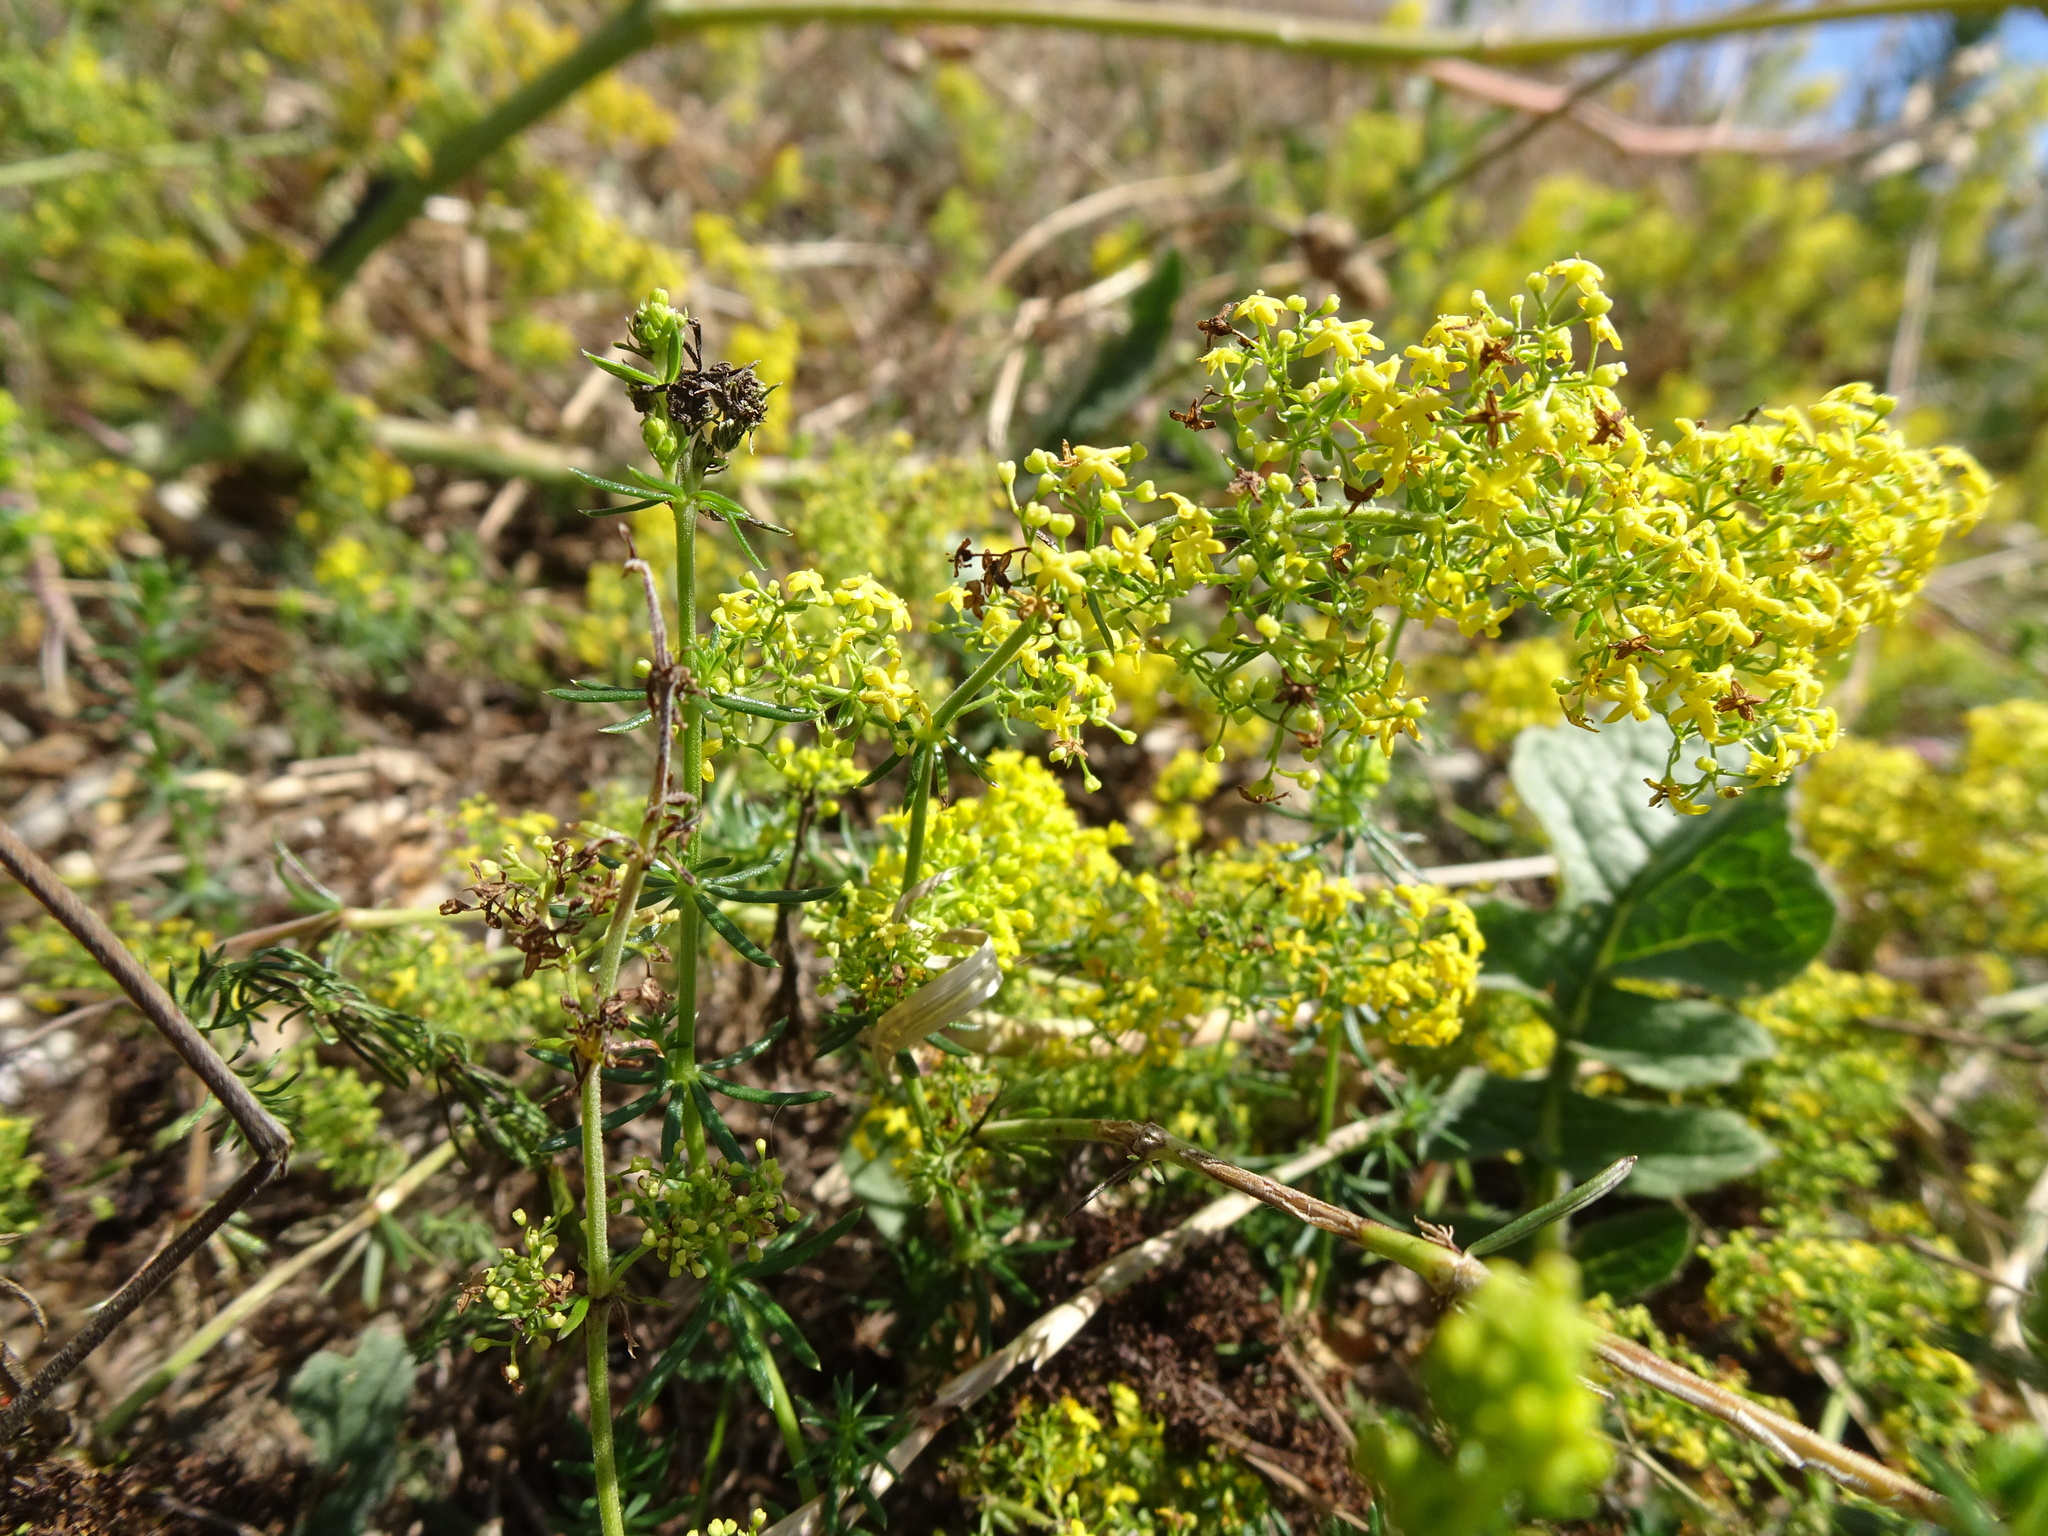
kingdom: Plantae
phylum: Tracheophyta
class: Magnoliopsida
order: Gentianales
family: Rubiaceae
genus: Galium
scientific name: Galium verum
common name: Lady's bedstraw
